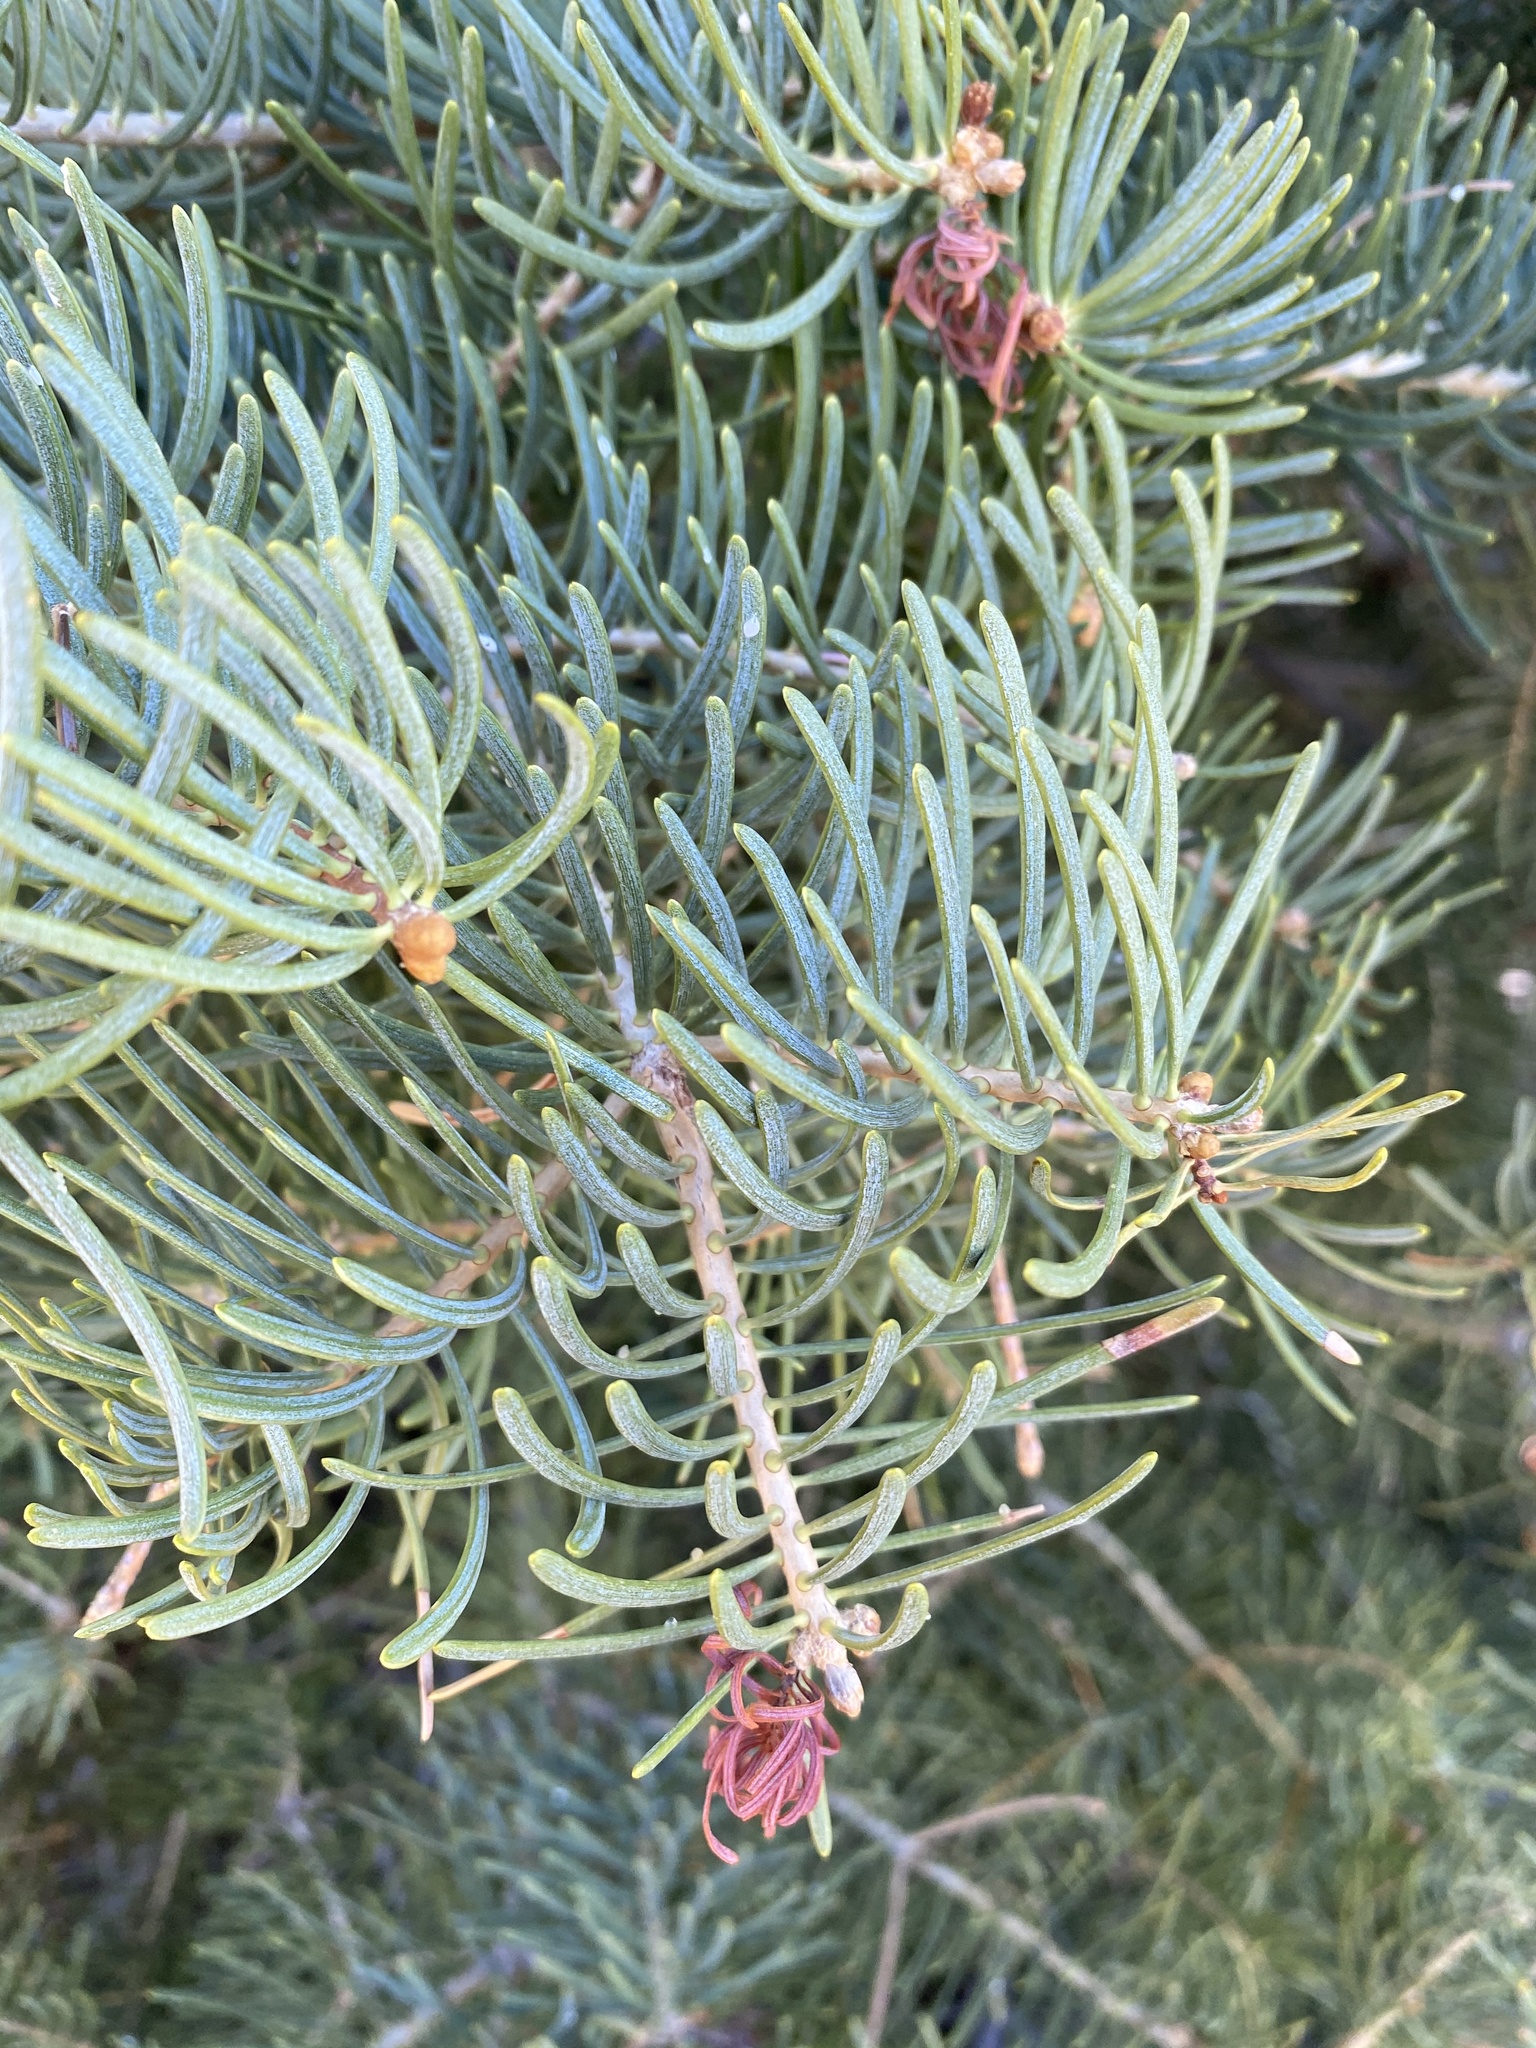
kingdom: Plantae
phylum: Tracheophyta
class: Pinopsida
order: Pinales
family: Pinaceae
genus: Abies
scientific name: Abies concolor
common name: Colorado fir
